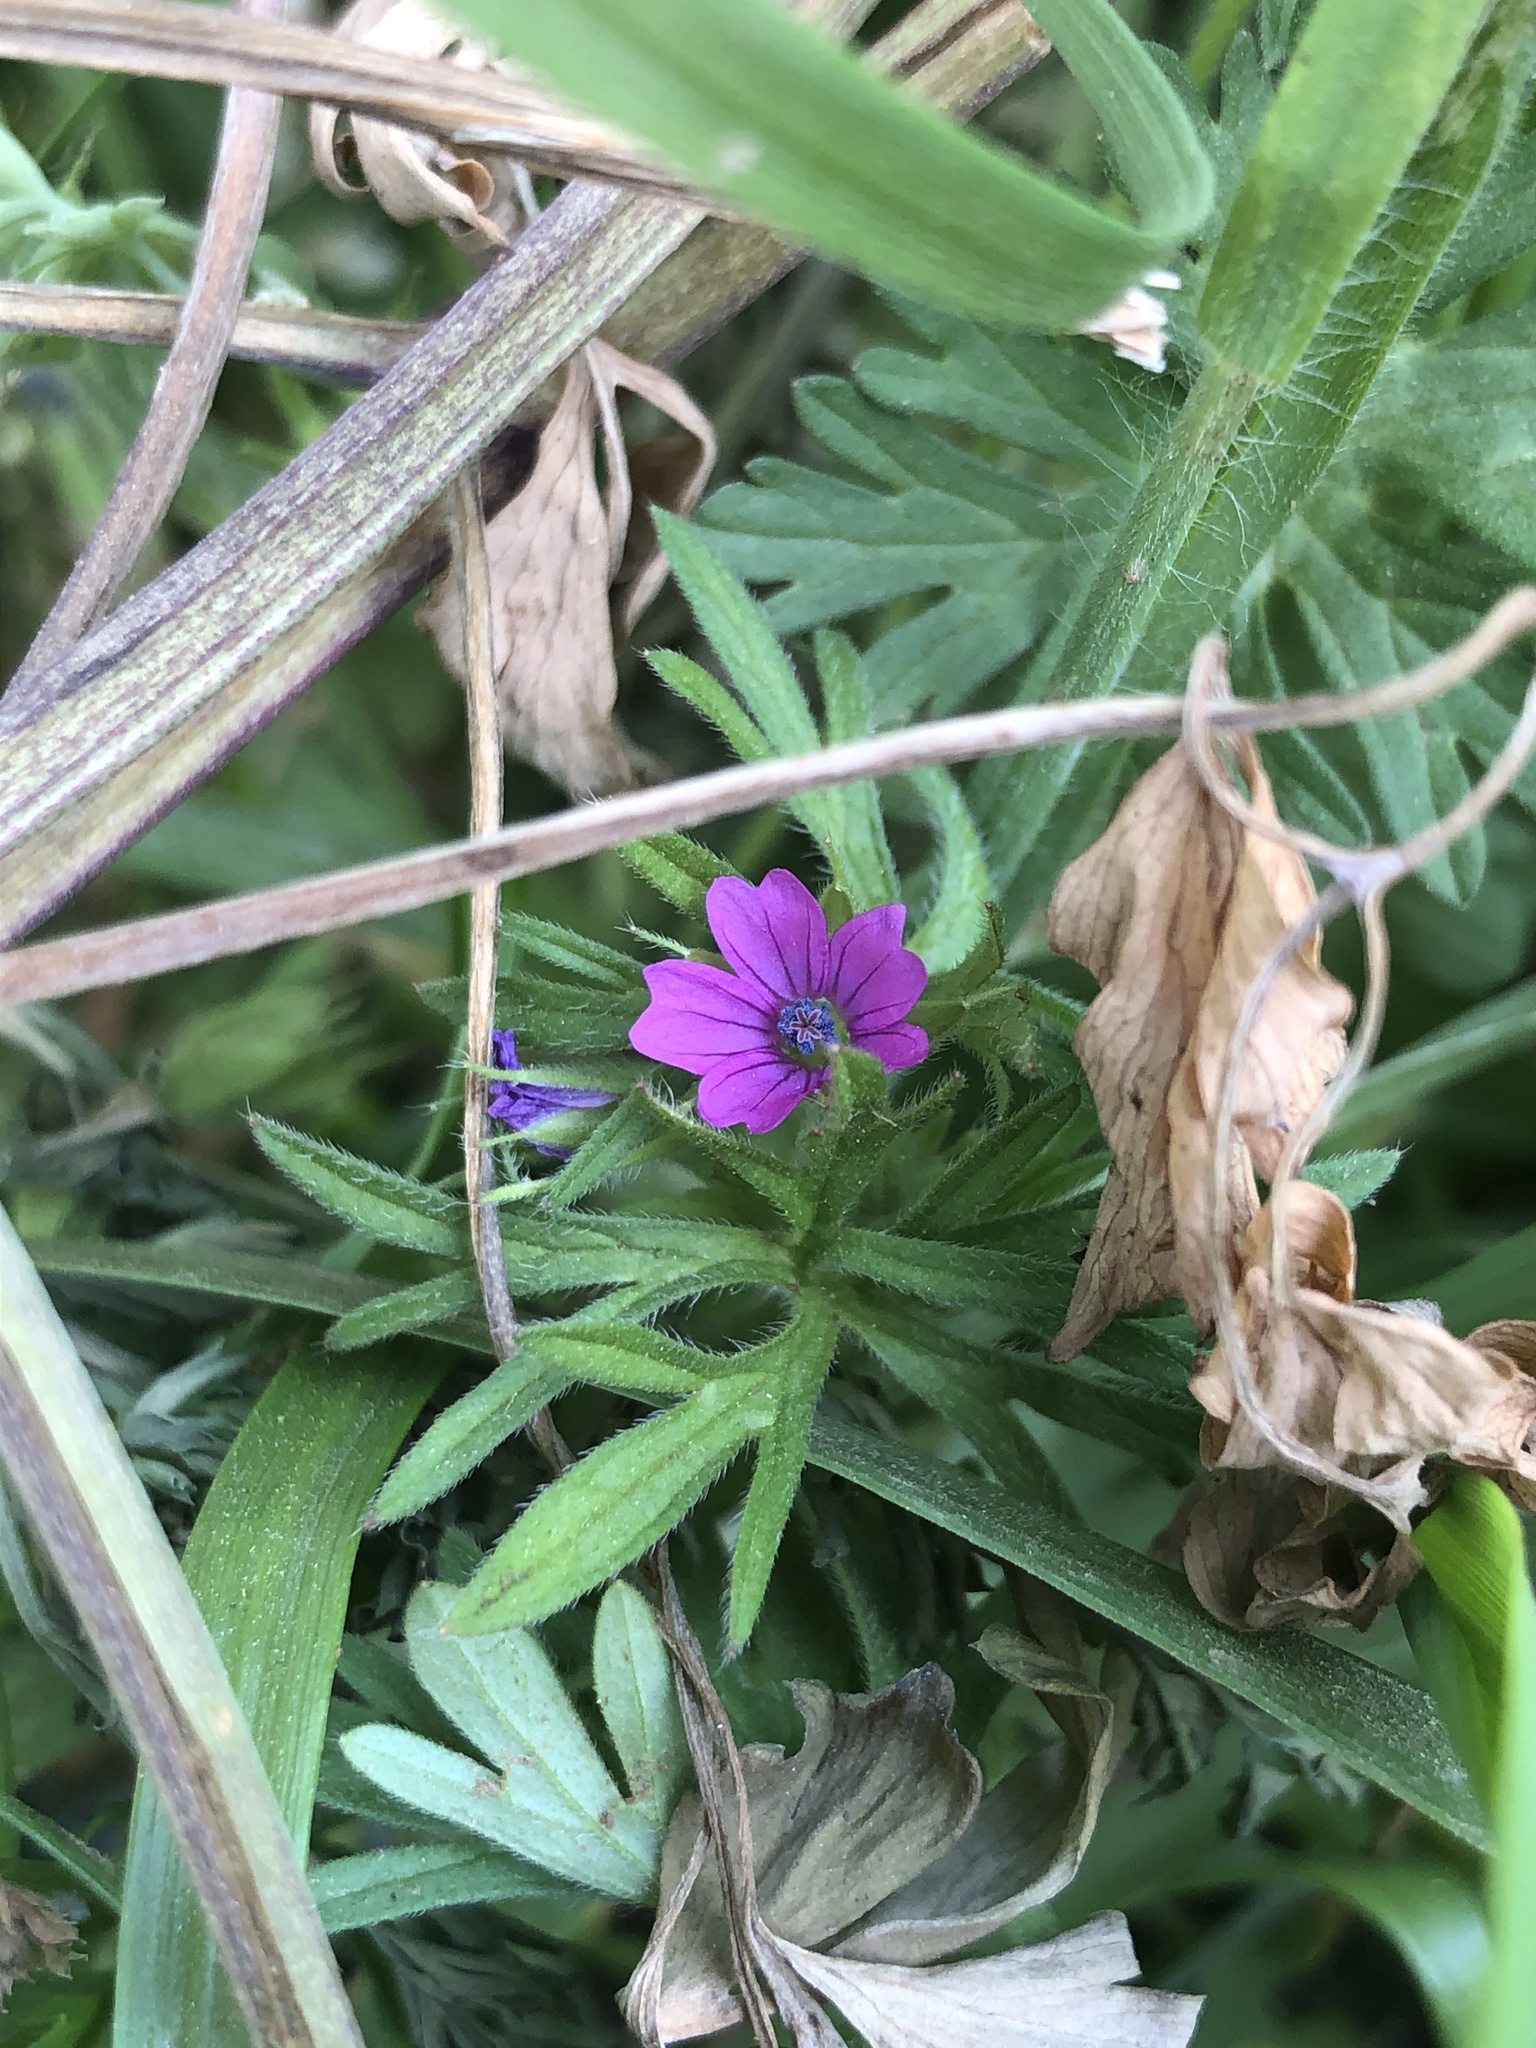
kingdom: Plantae
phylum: Tracheophyta
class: Magnoliopsida
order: Geraniales
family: Geraniaceae
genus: Geranium
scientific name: Geranium dissectum
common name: Cut-leaved crane's-bill
